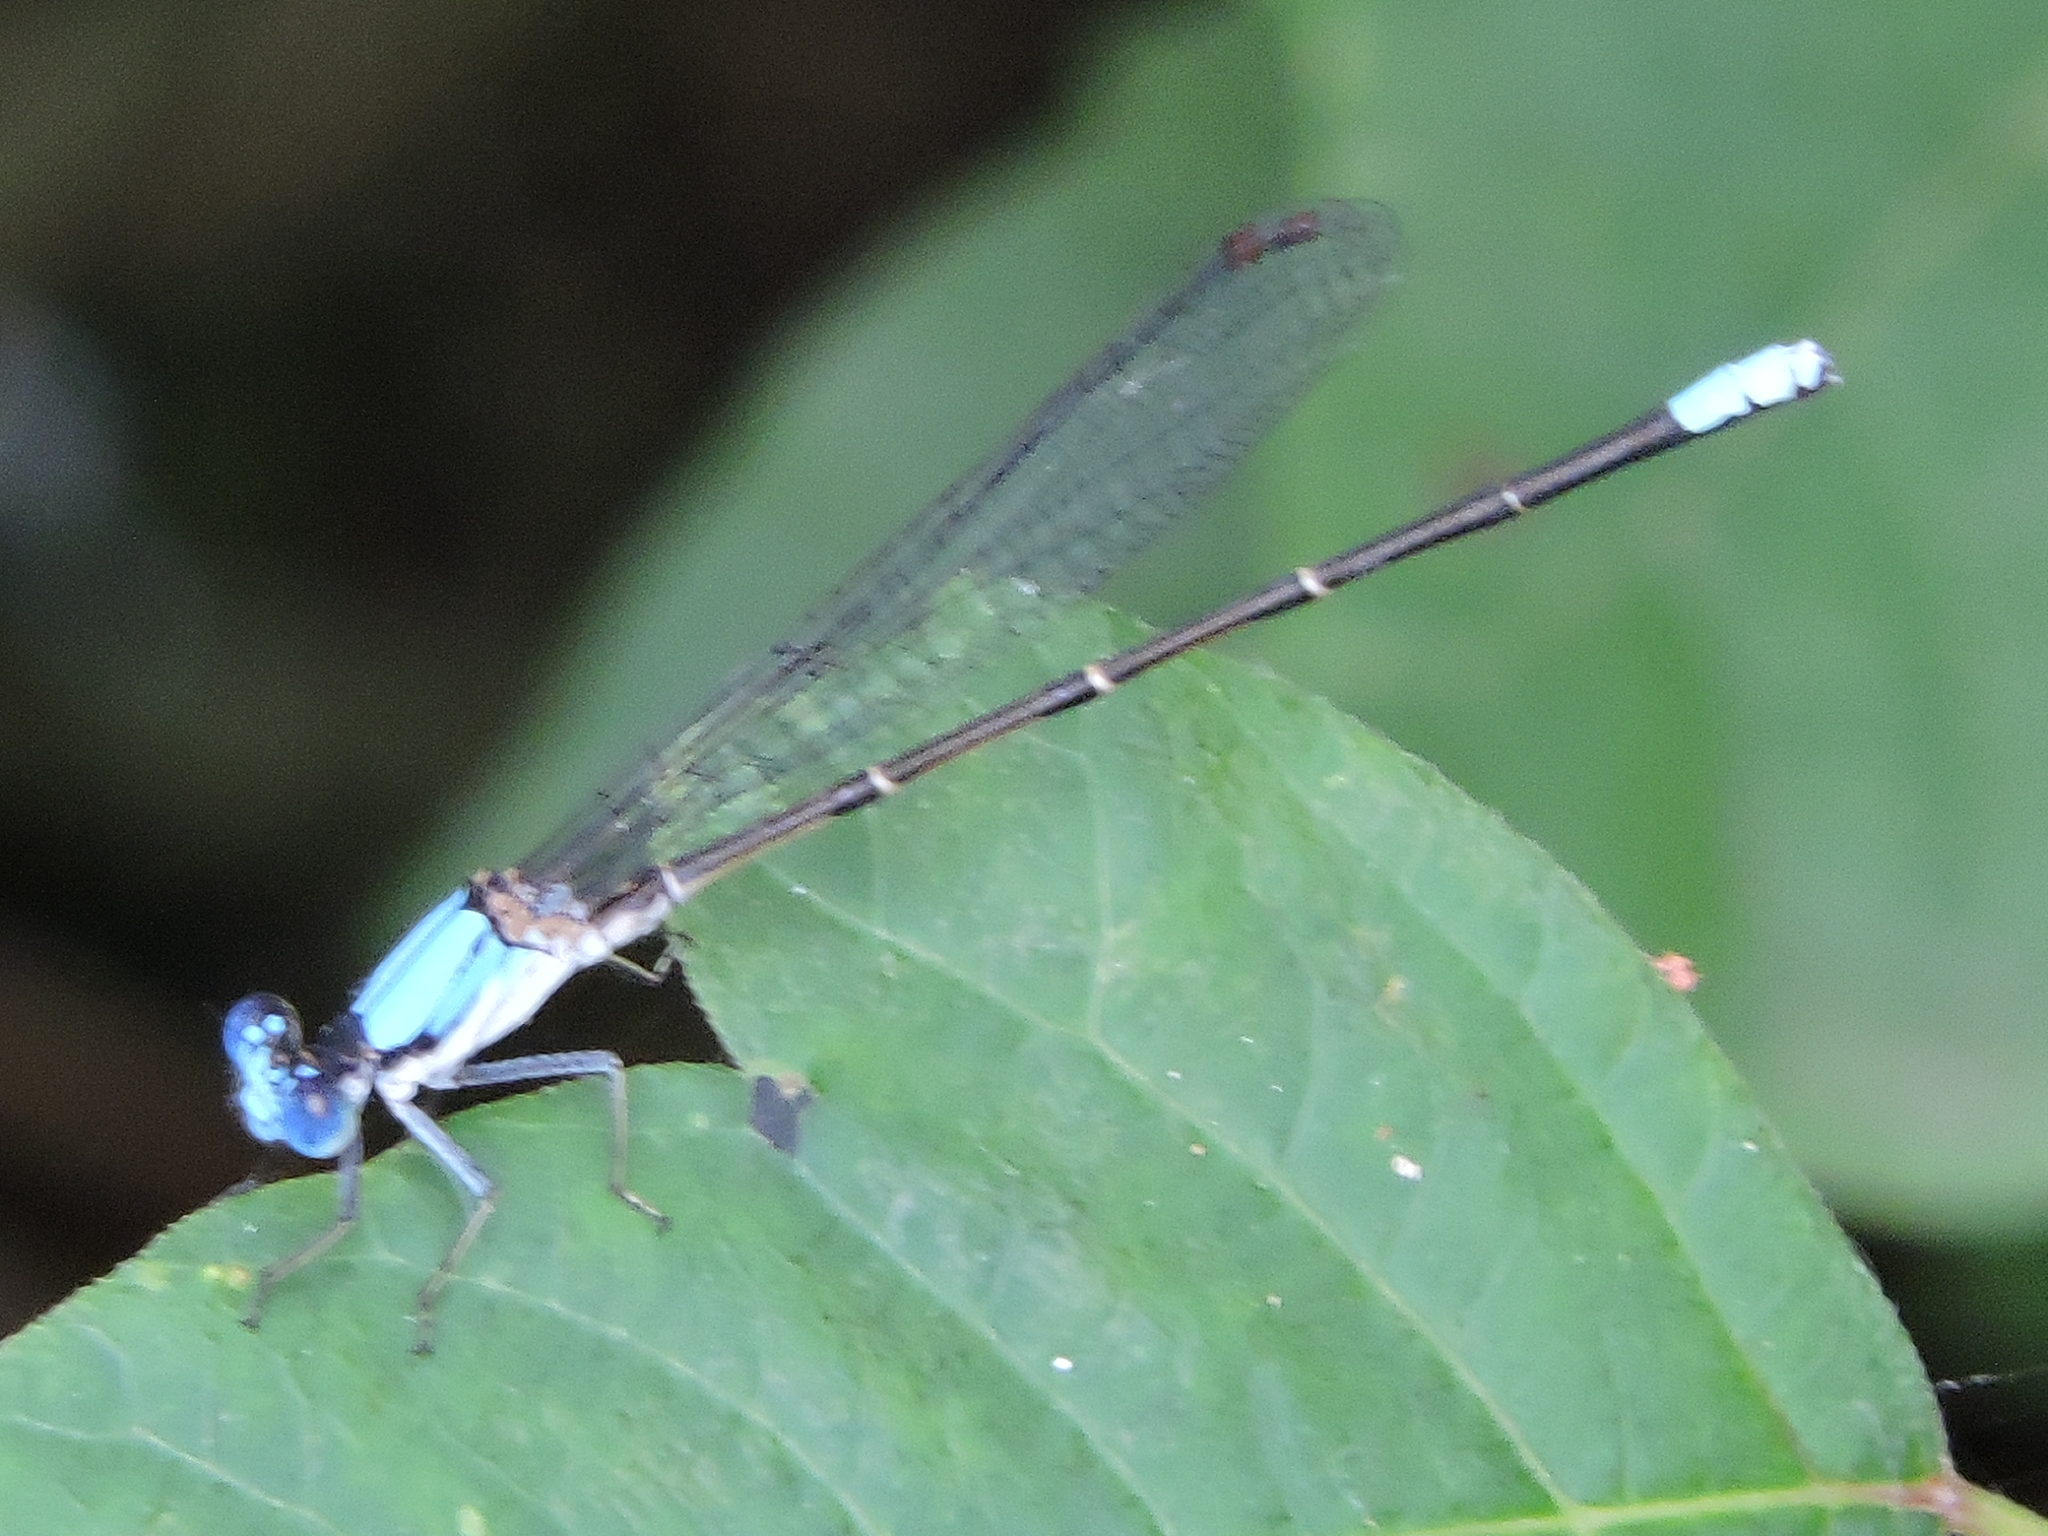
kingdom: Animalia
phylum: Arthropoda
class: Insecta
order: Odonata
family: Coenagrionidae
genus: Argia
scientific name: Argia apicalis
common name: Blue-fronted dancer
